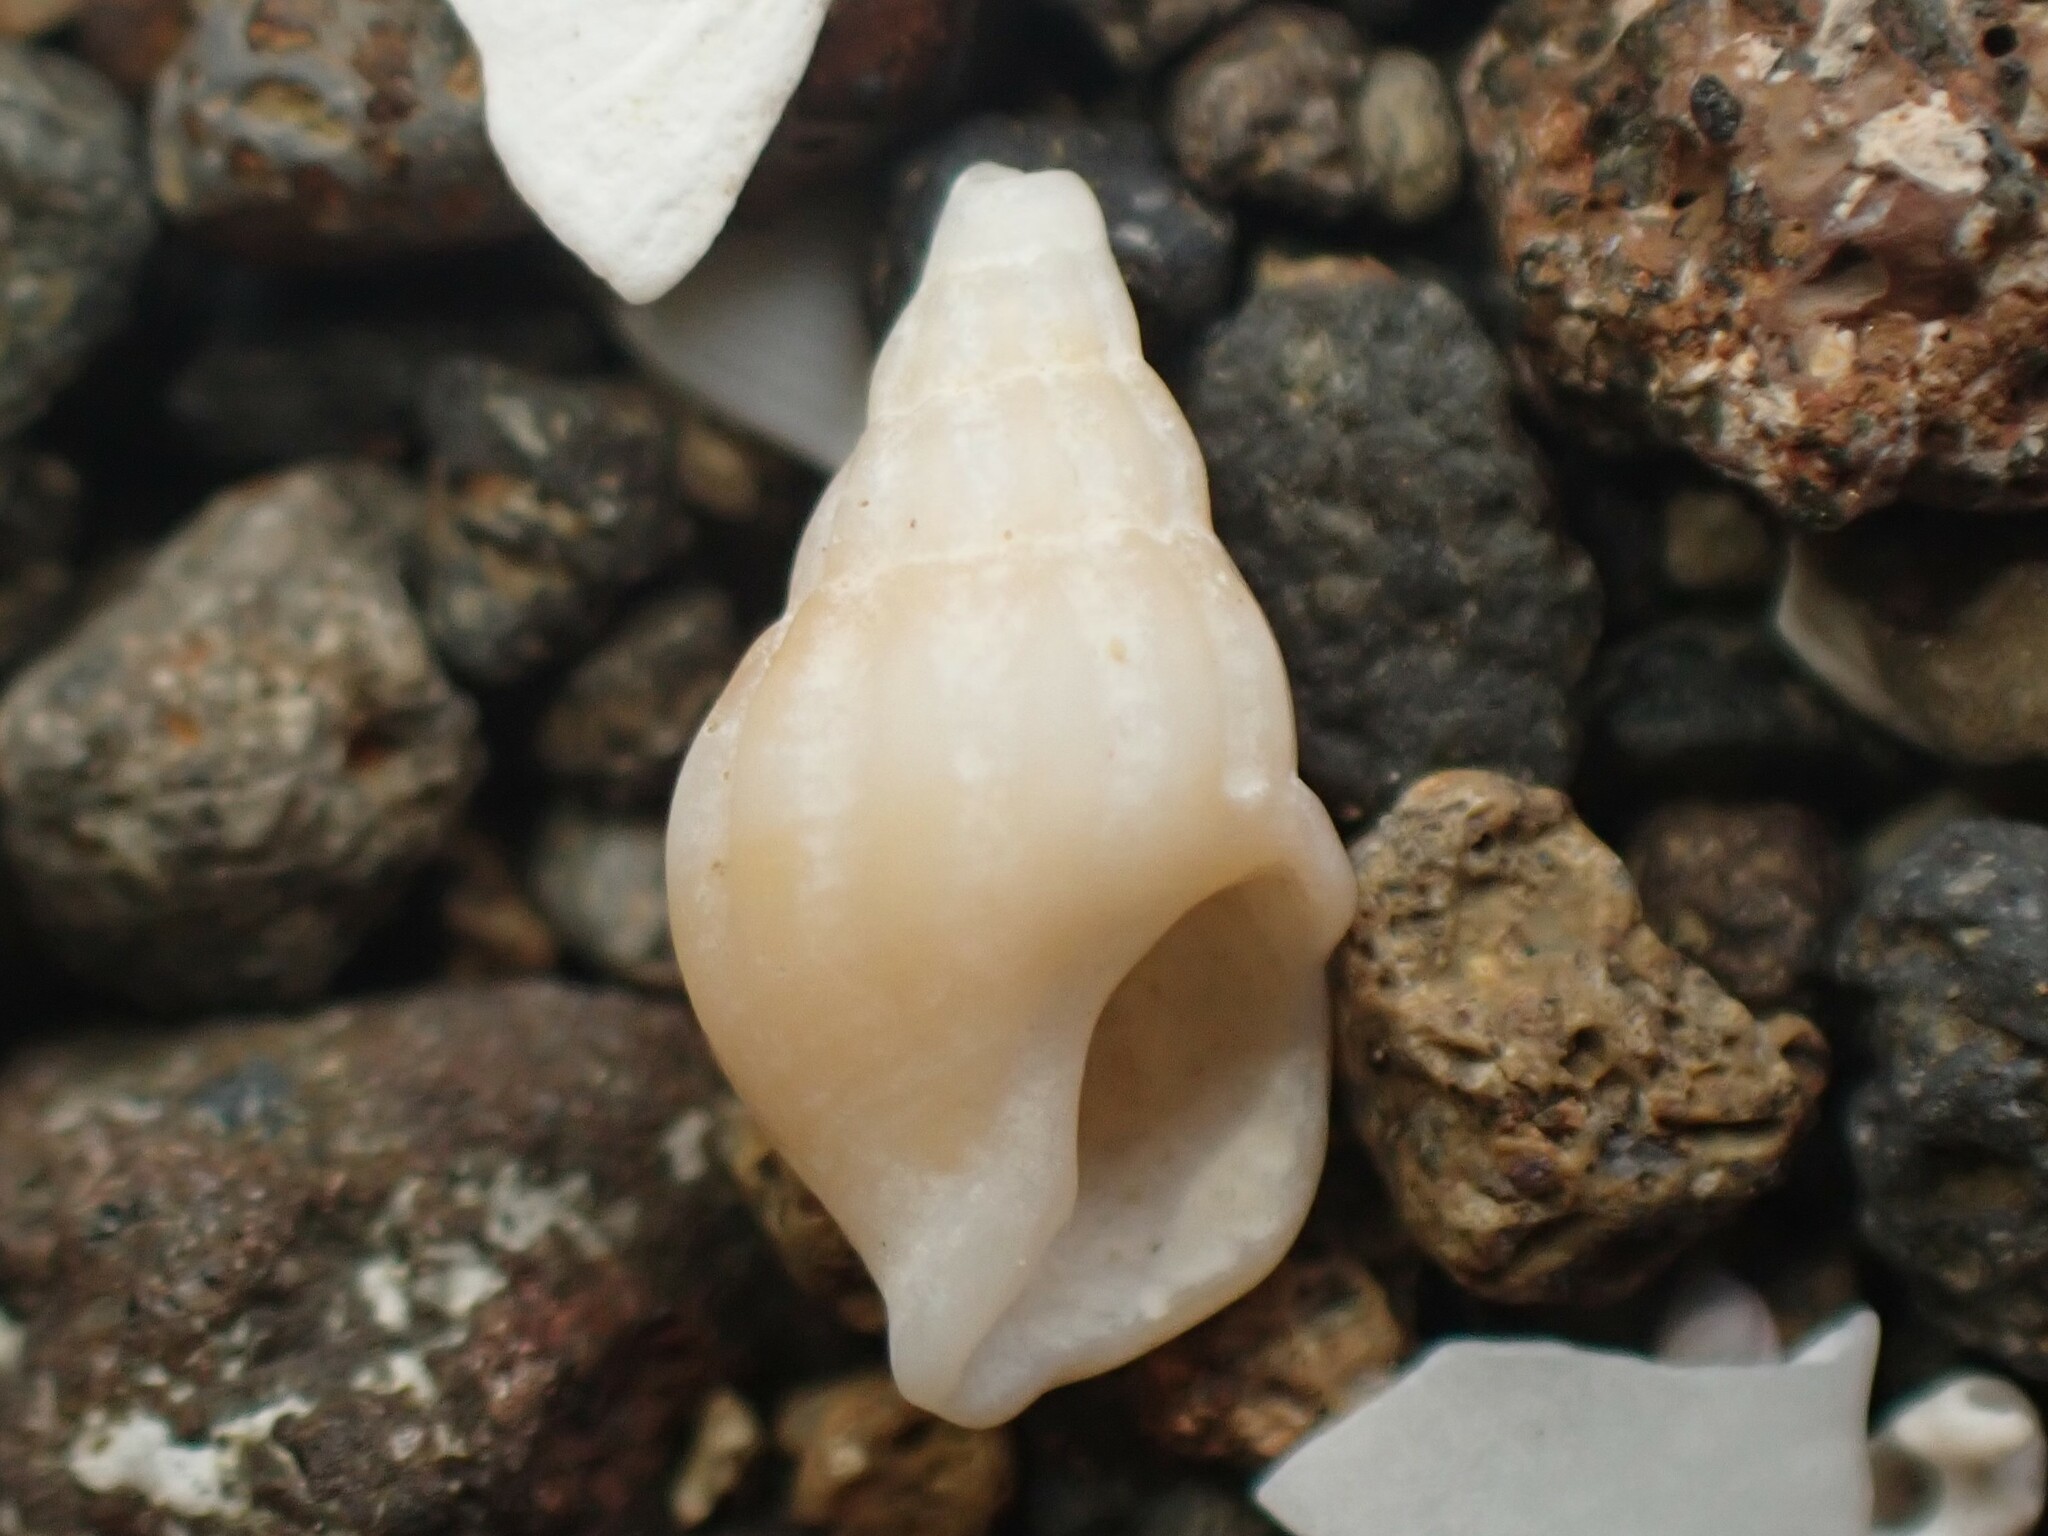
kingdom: Animalia
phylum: Mollusca
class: Gastropoda
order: Neogastropoda
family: Cominellidae
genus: Cominella
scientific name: Cominella accuminata
